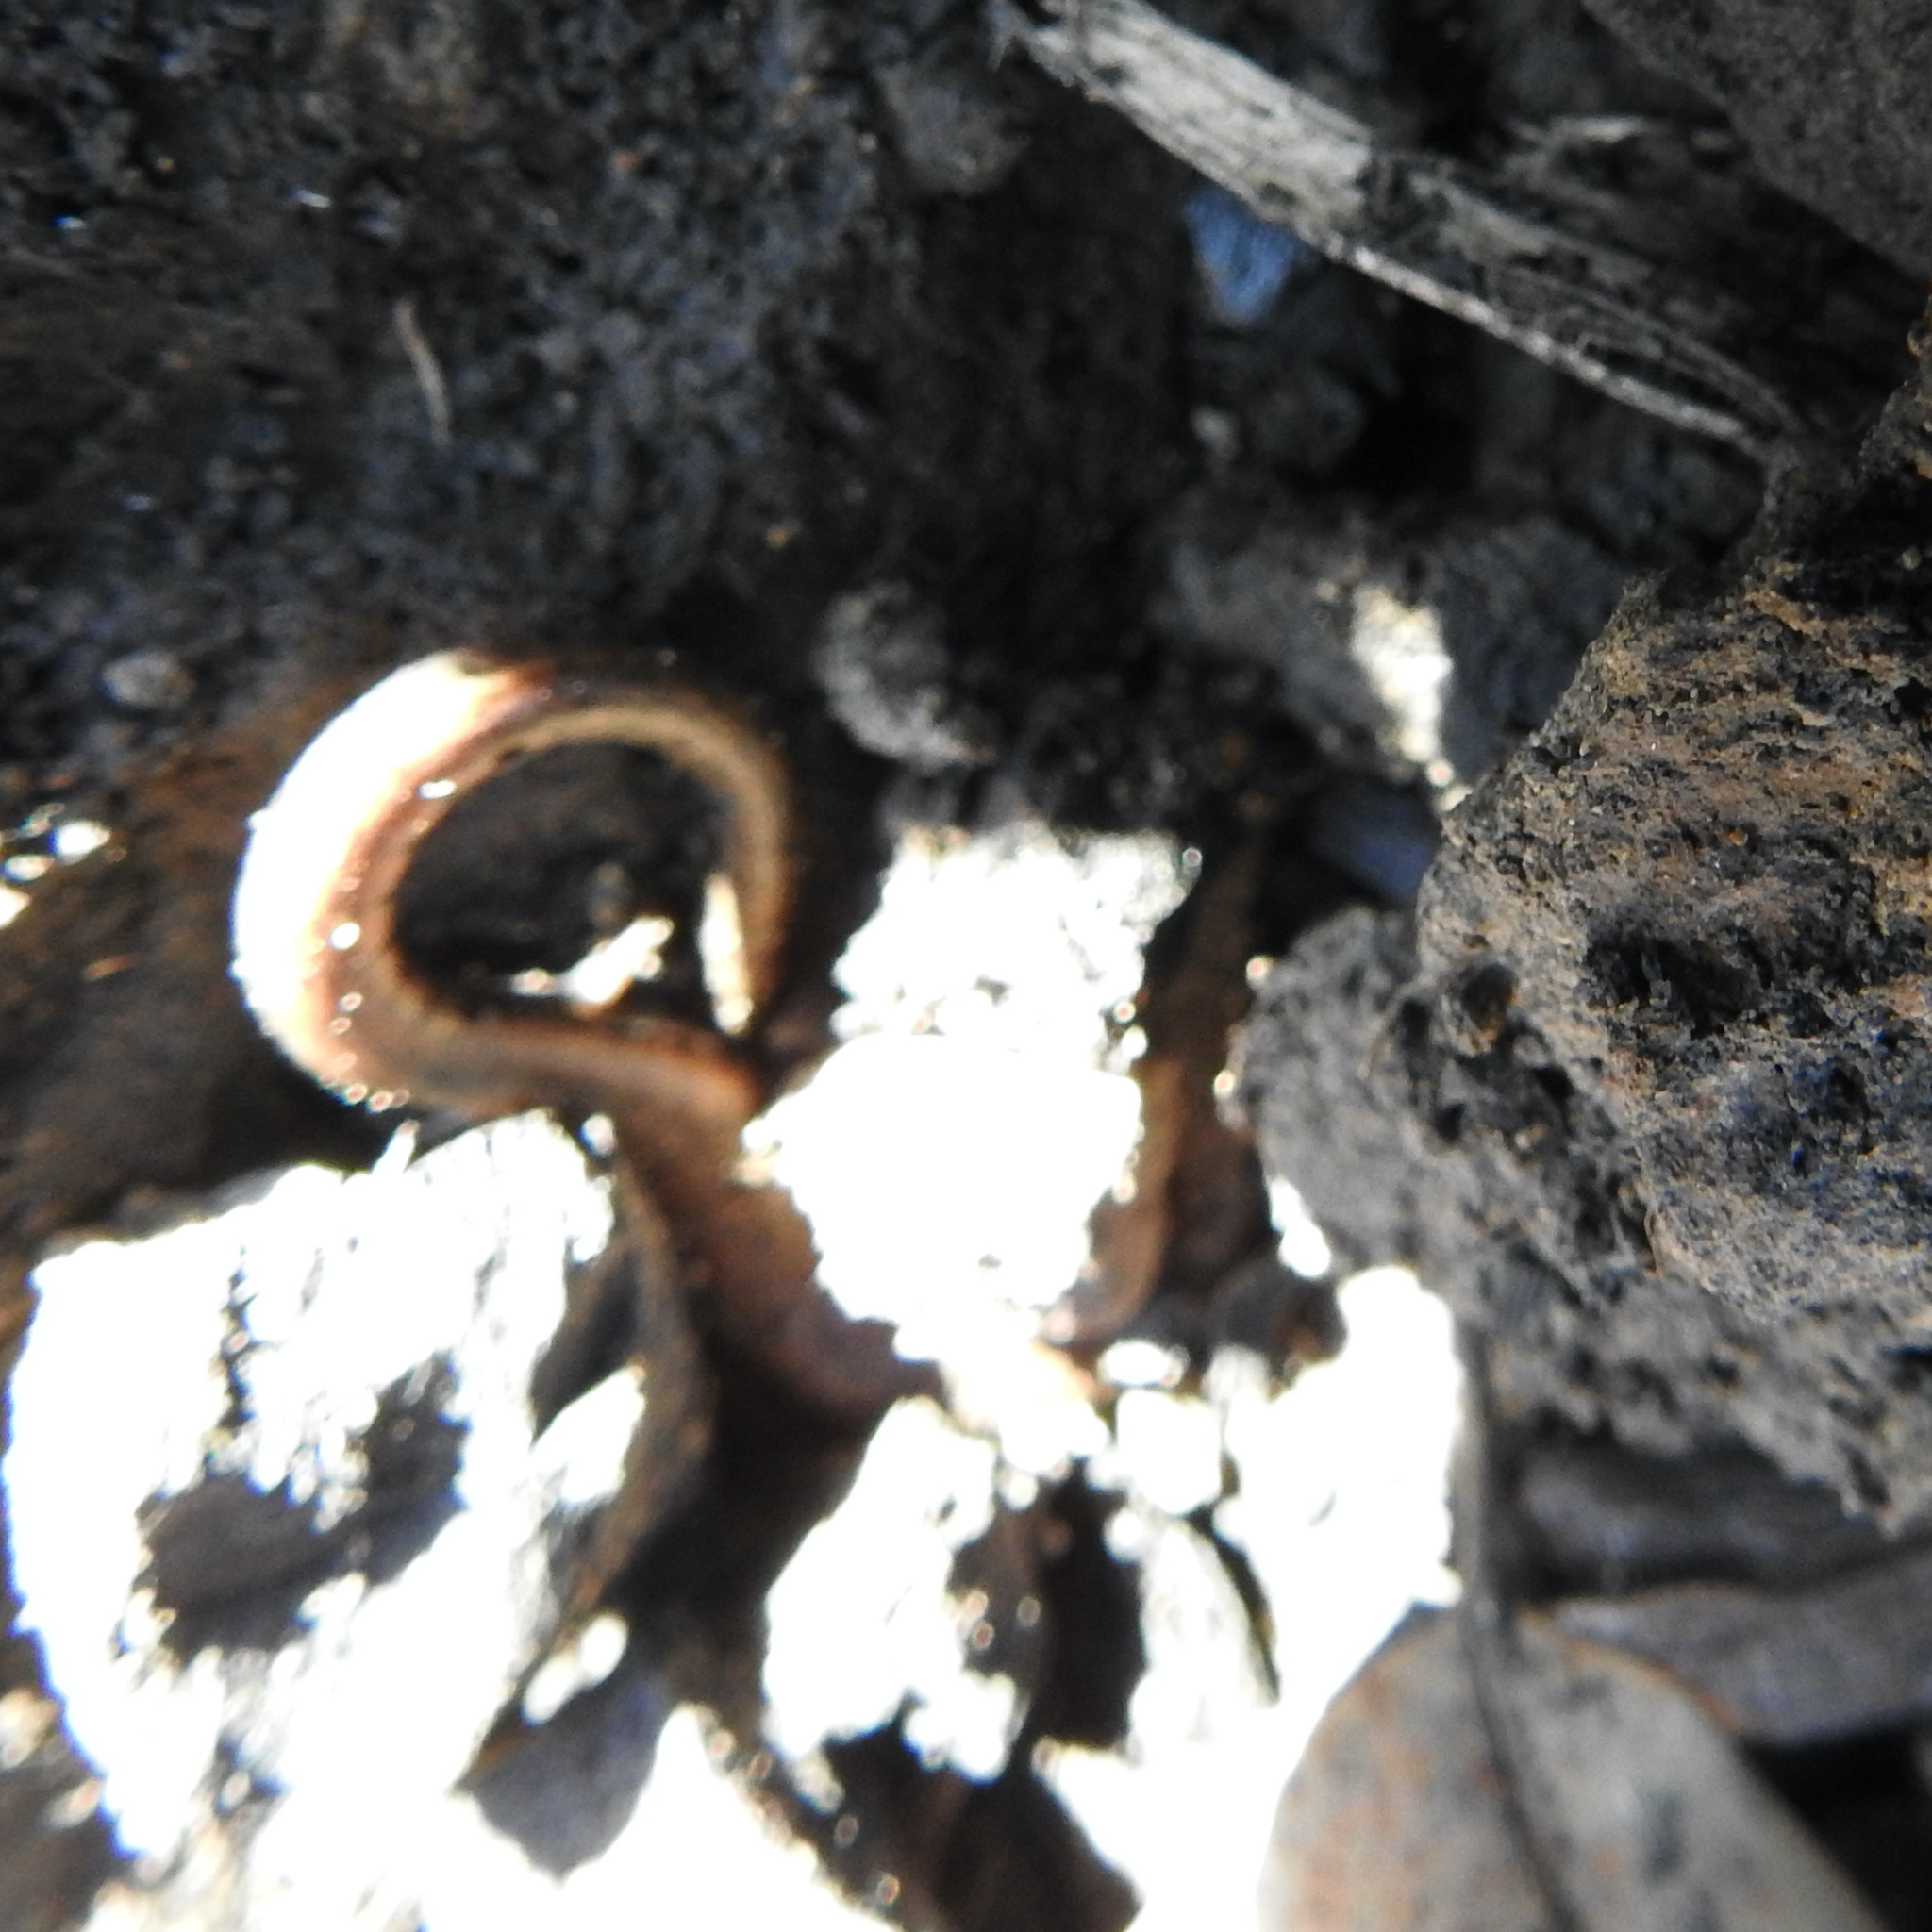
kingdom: Animalia
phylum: Chordata
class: Amphibia
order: Caudata
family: Plethodontidae
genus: Batrachoseps
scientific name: Batrachoseps attenuatus
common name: California slender salamander
